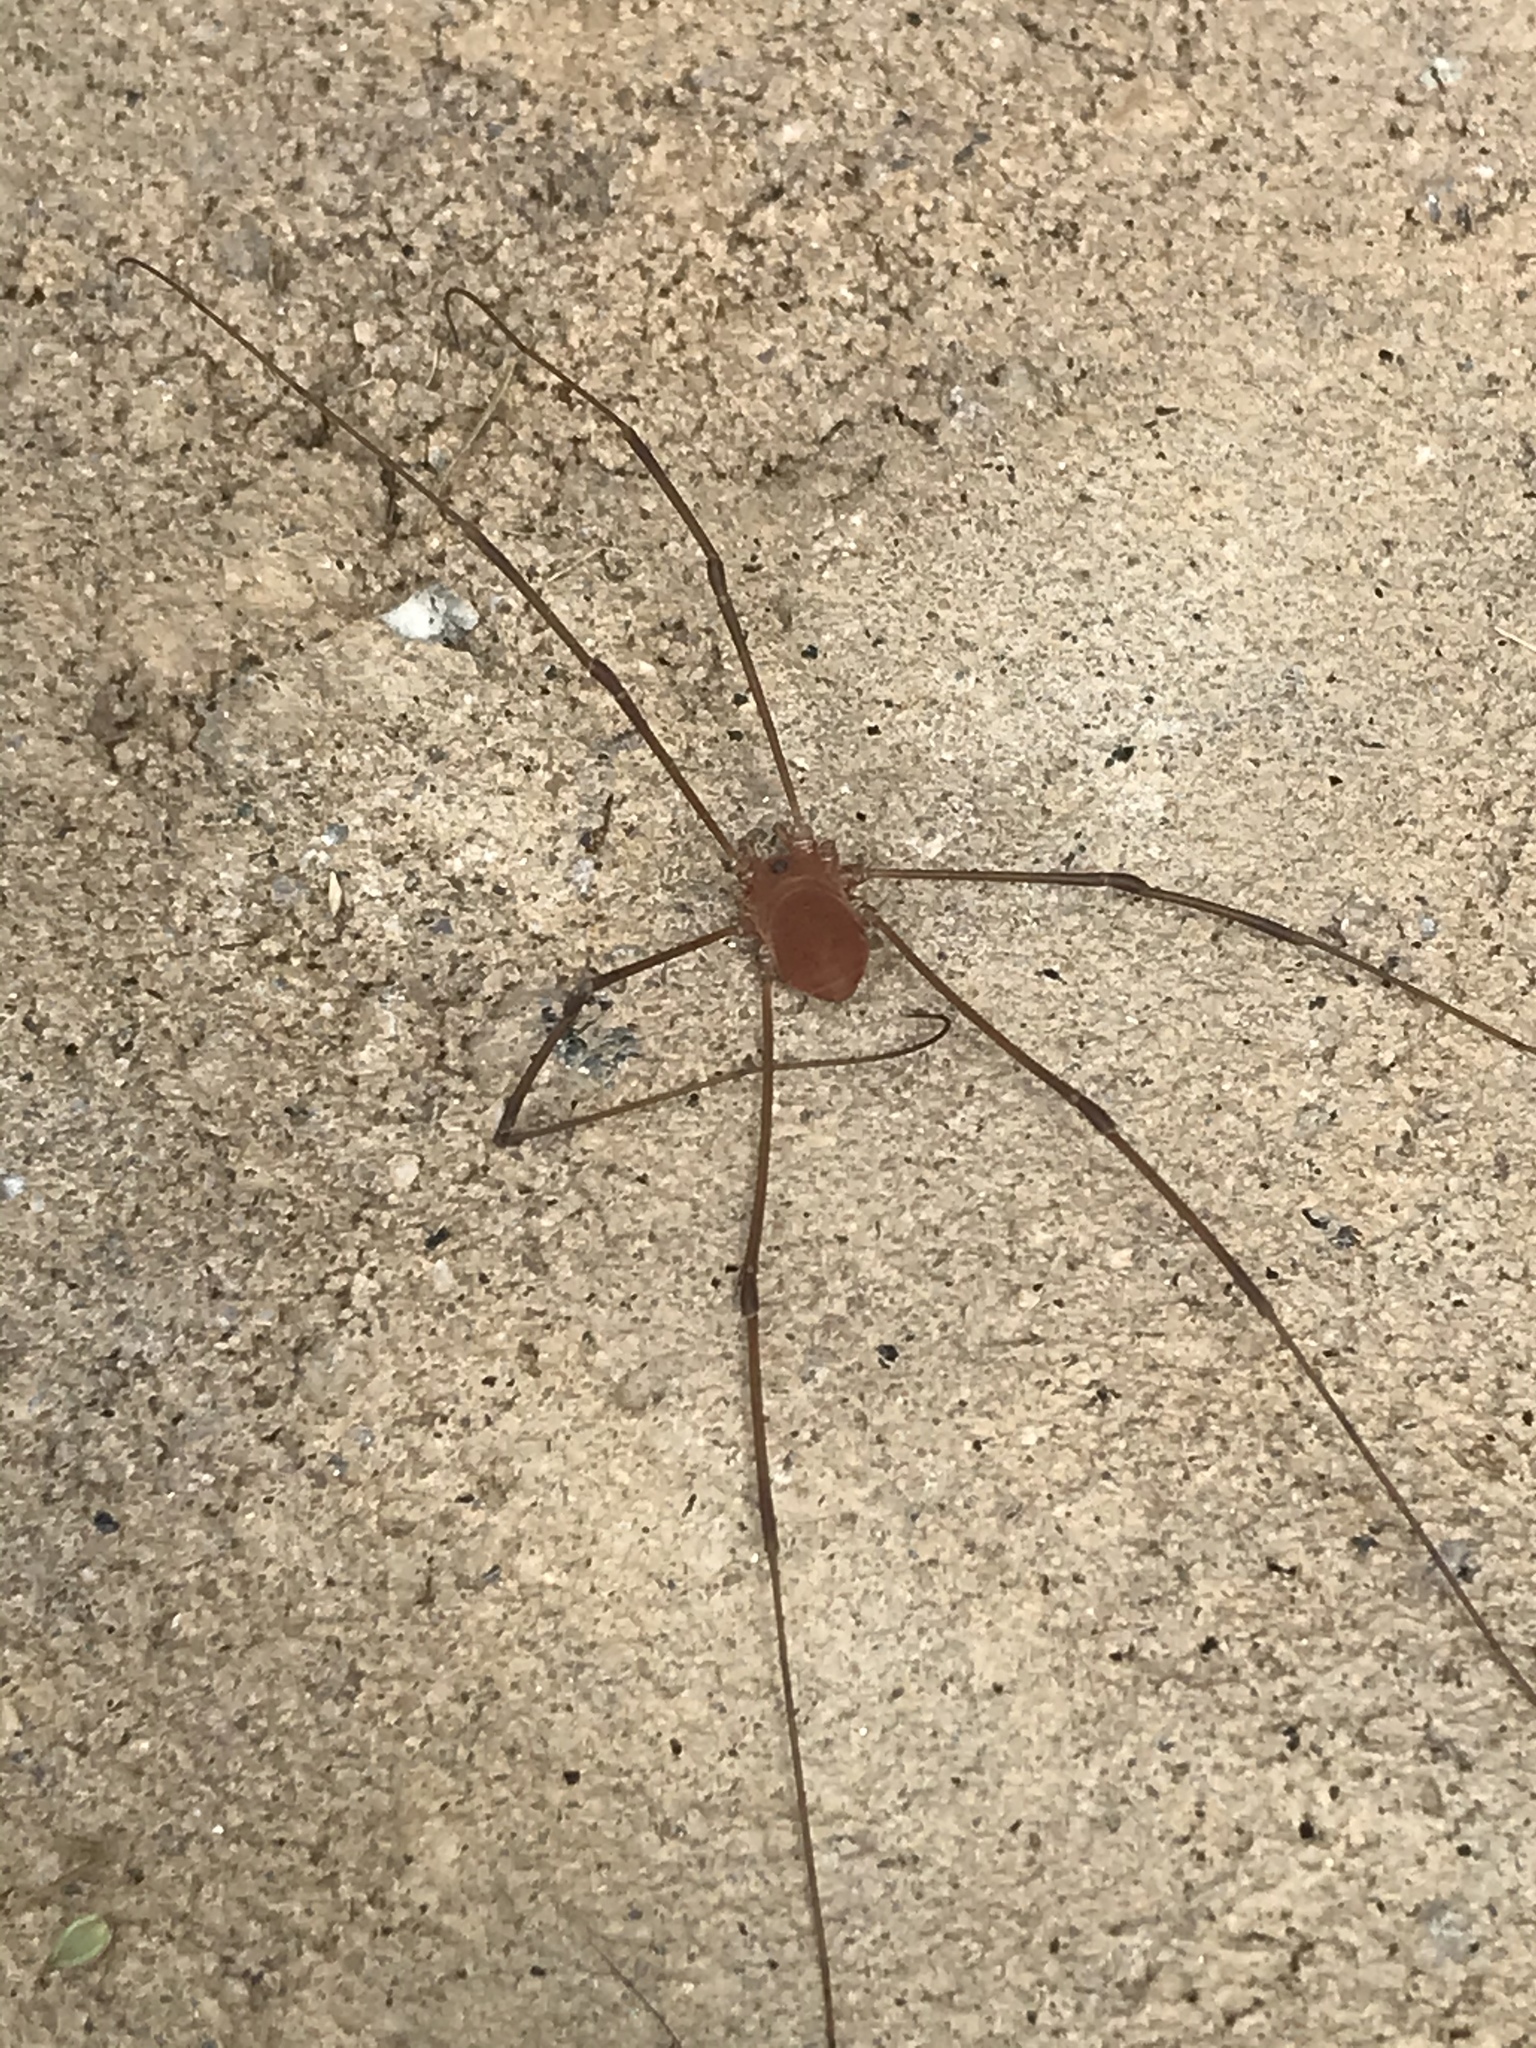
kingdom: Animalia
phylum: Arthropoda
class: Arachnida
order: Opiliones
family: Sclerosomatidae
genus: Leiobunum
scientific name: Leiobunum vittatum
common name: Eastern harvestman
